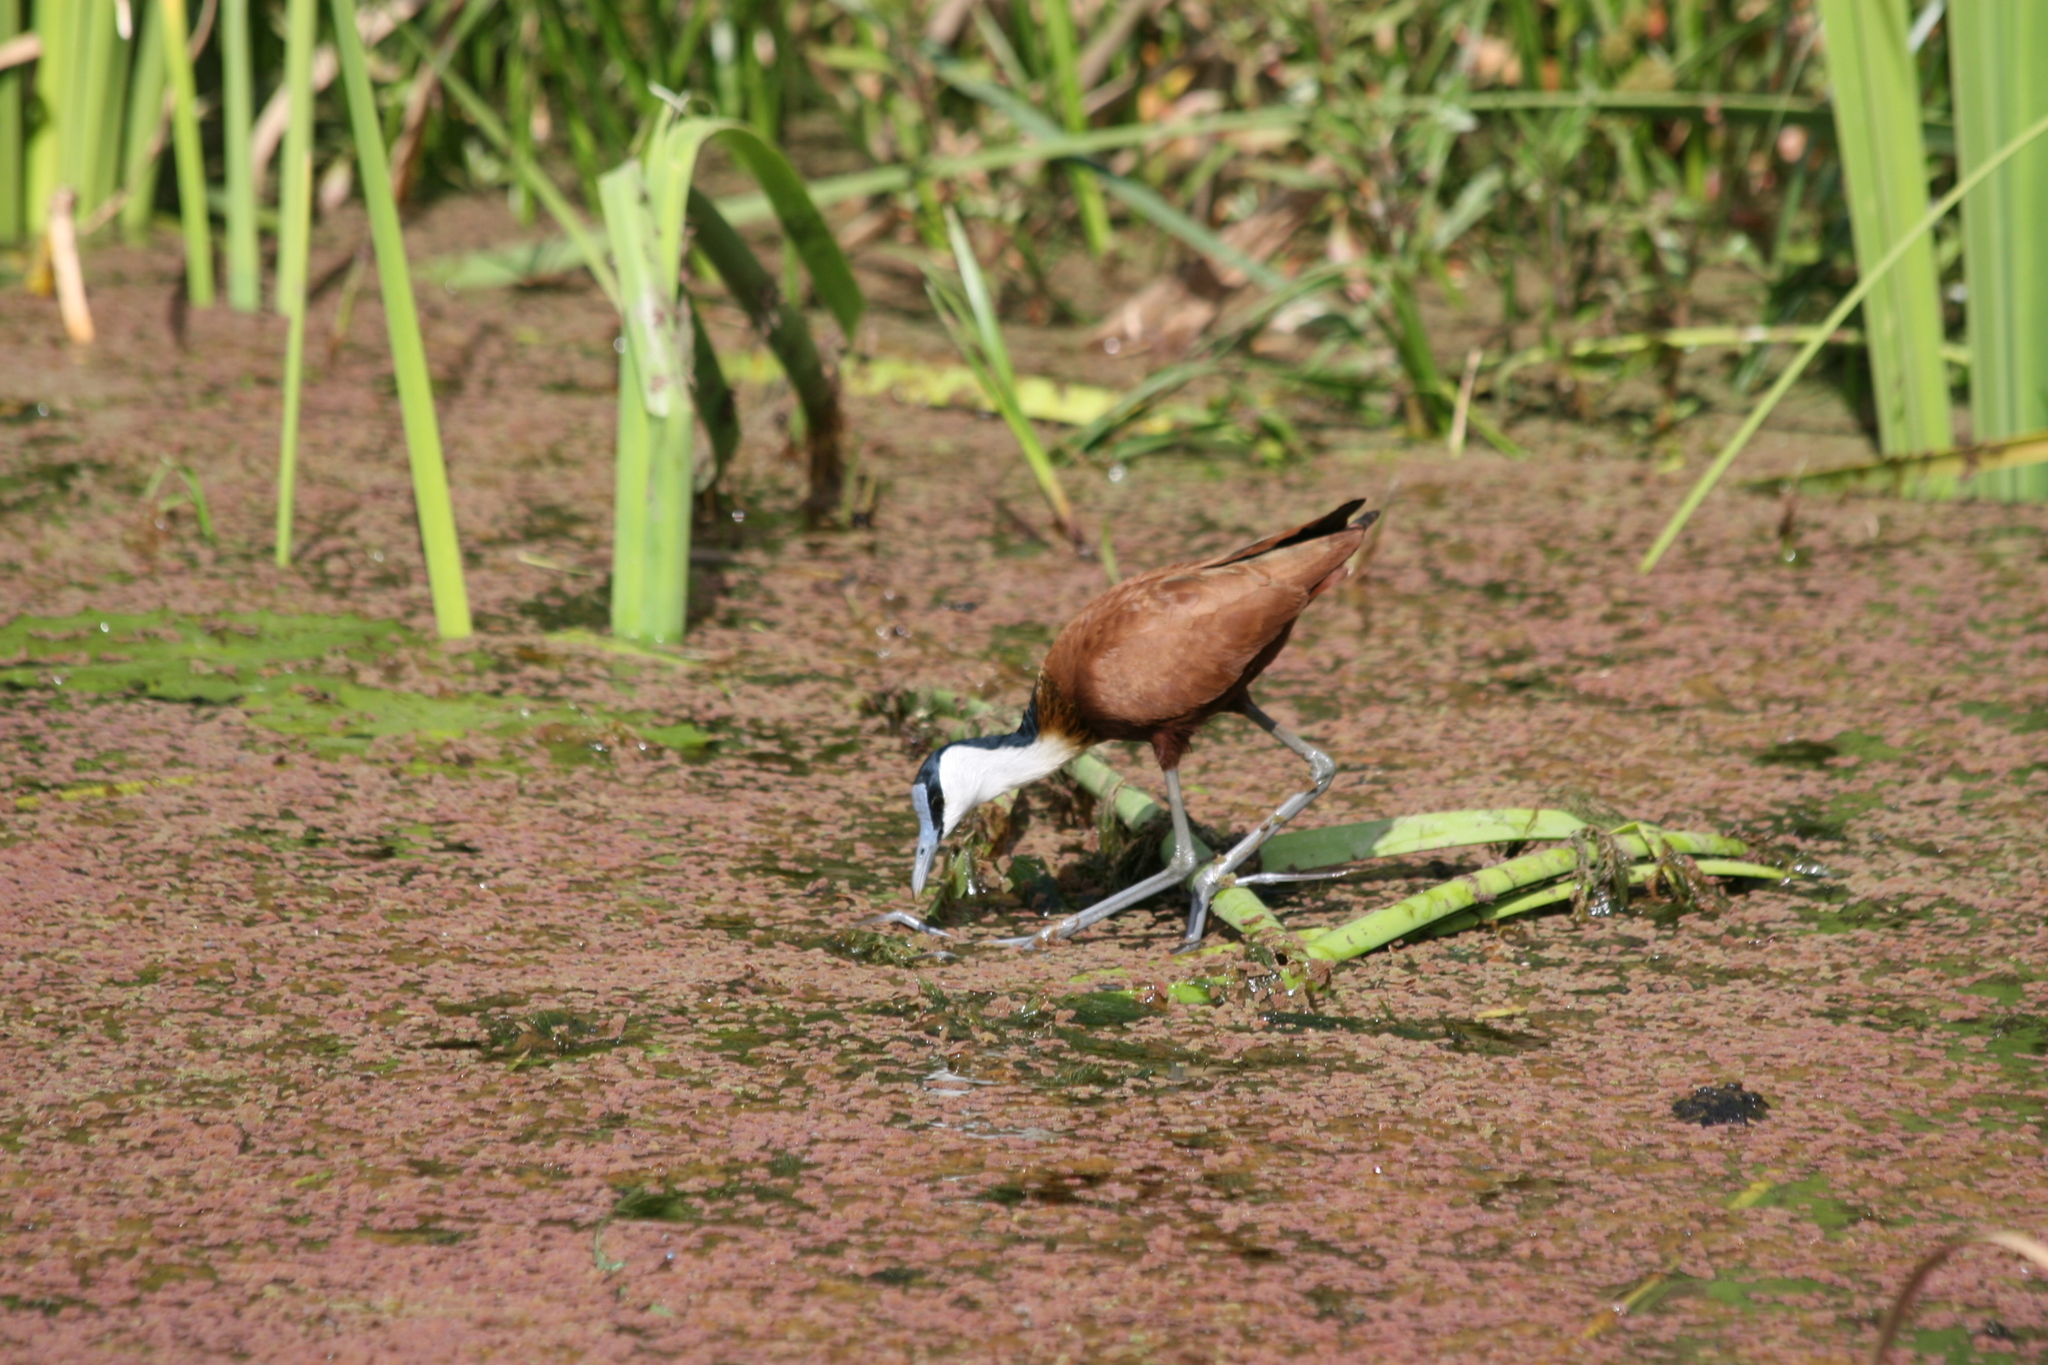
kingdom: Animalia
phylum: Chordata
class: Aves
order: Charadriiformes
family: Jacanidae
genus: Actophilornis
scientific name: Actophilornis africanus
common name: African jacana
